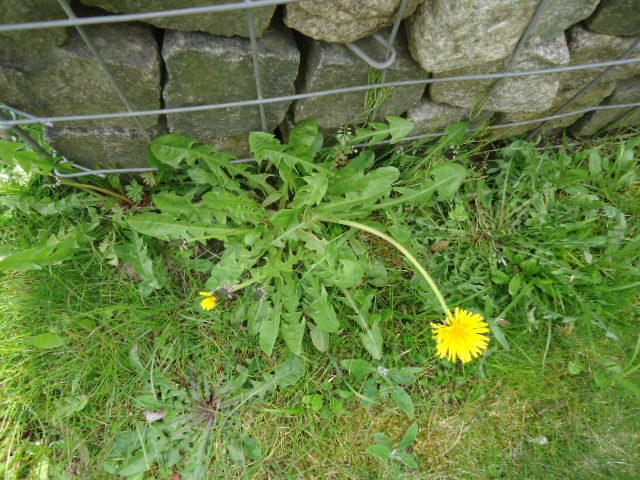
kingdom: Plantae
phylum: Tracheophyta
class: Magnoliopsida
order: Asterales
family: Asteraceae
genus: Taraxacum
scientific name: Taraxacum
